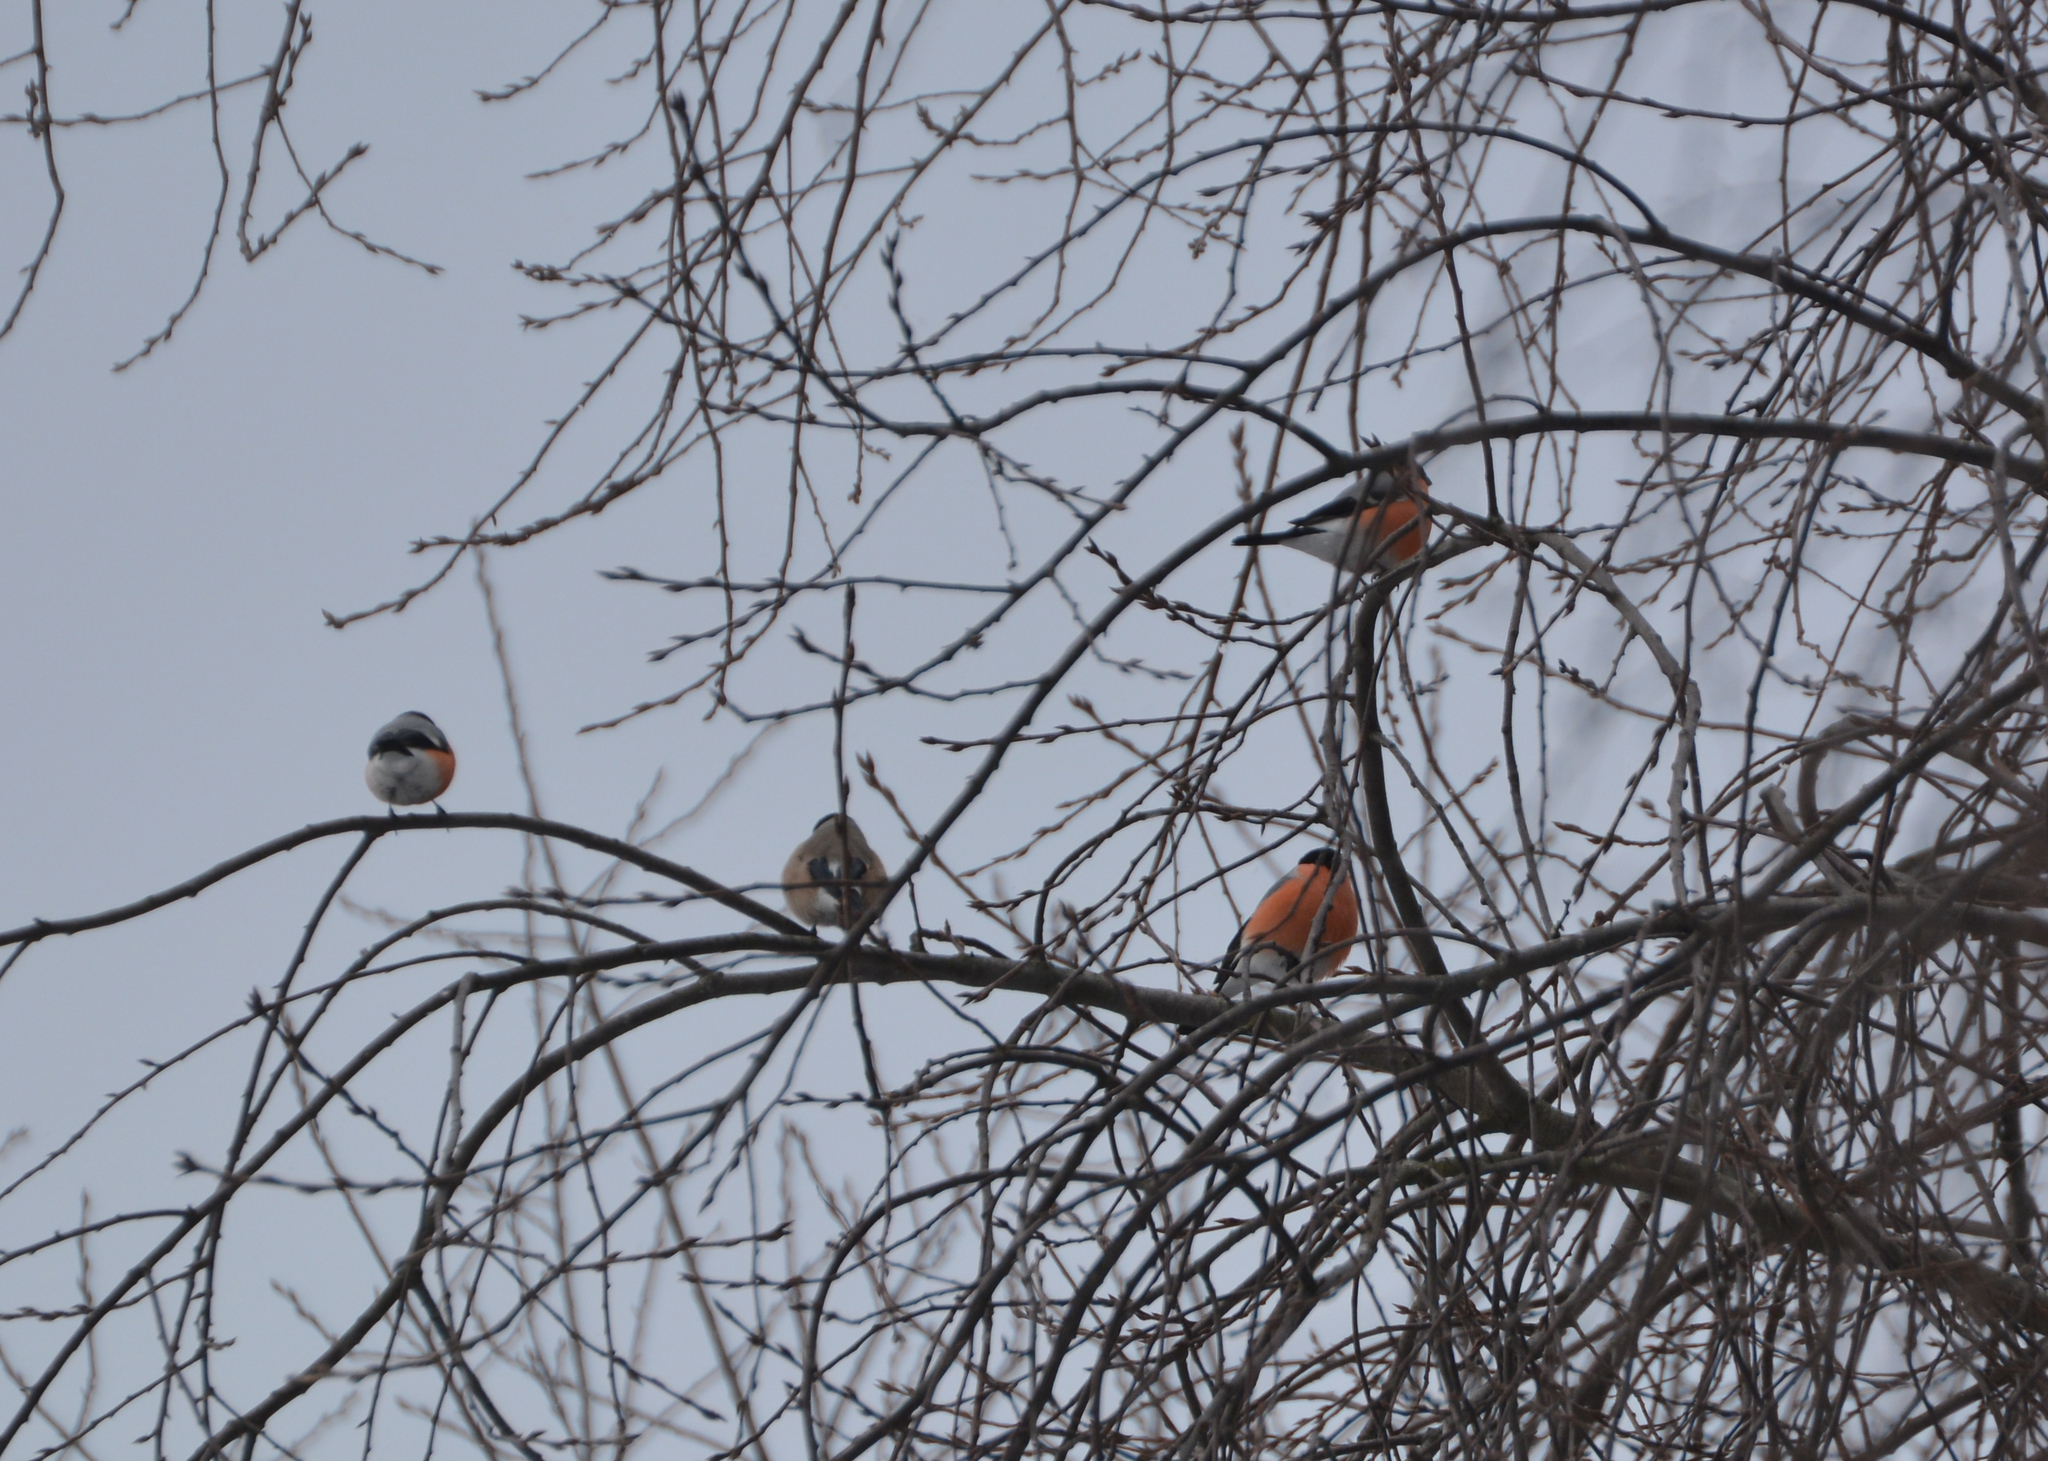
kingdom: Animalia
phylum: Chordata
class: Aves
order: Passeriformes
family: Fringillidae
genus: Pyrrhula
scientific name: Pyrrhula pyrrhula
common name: Eurasian bullfinch
